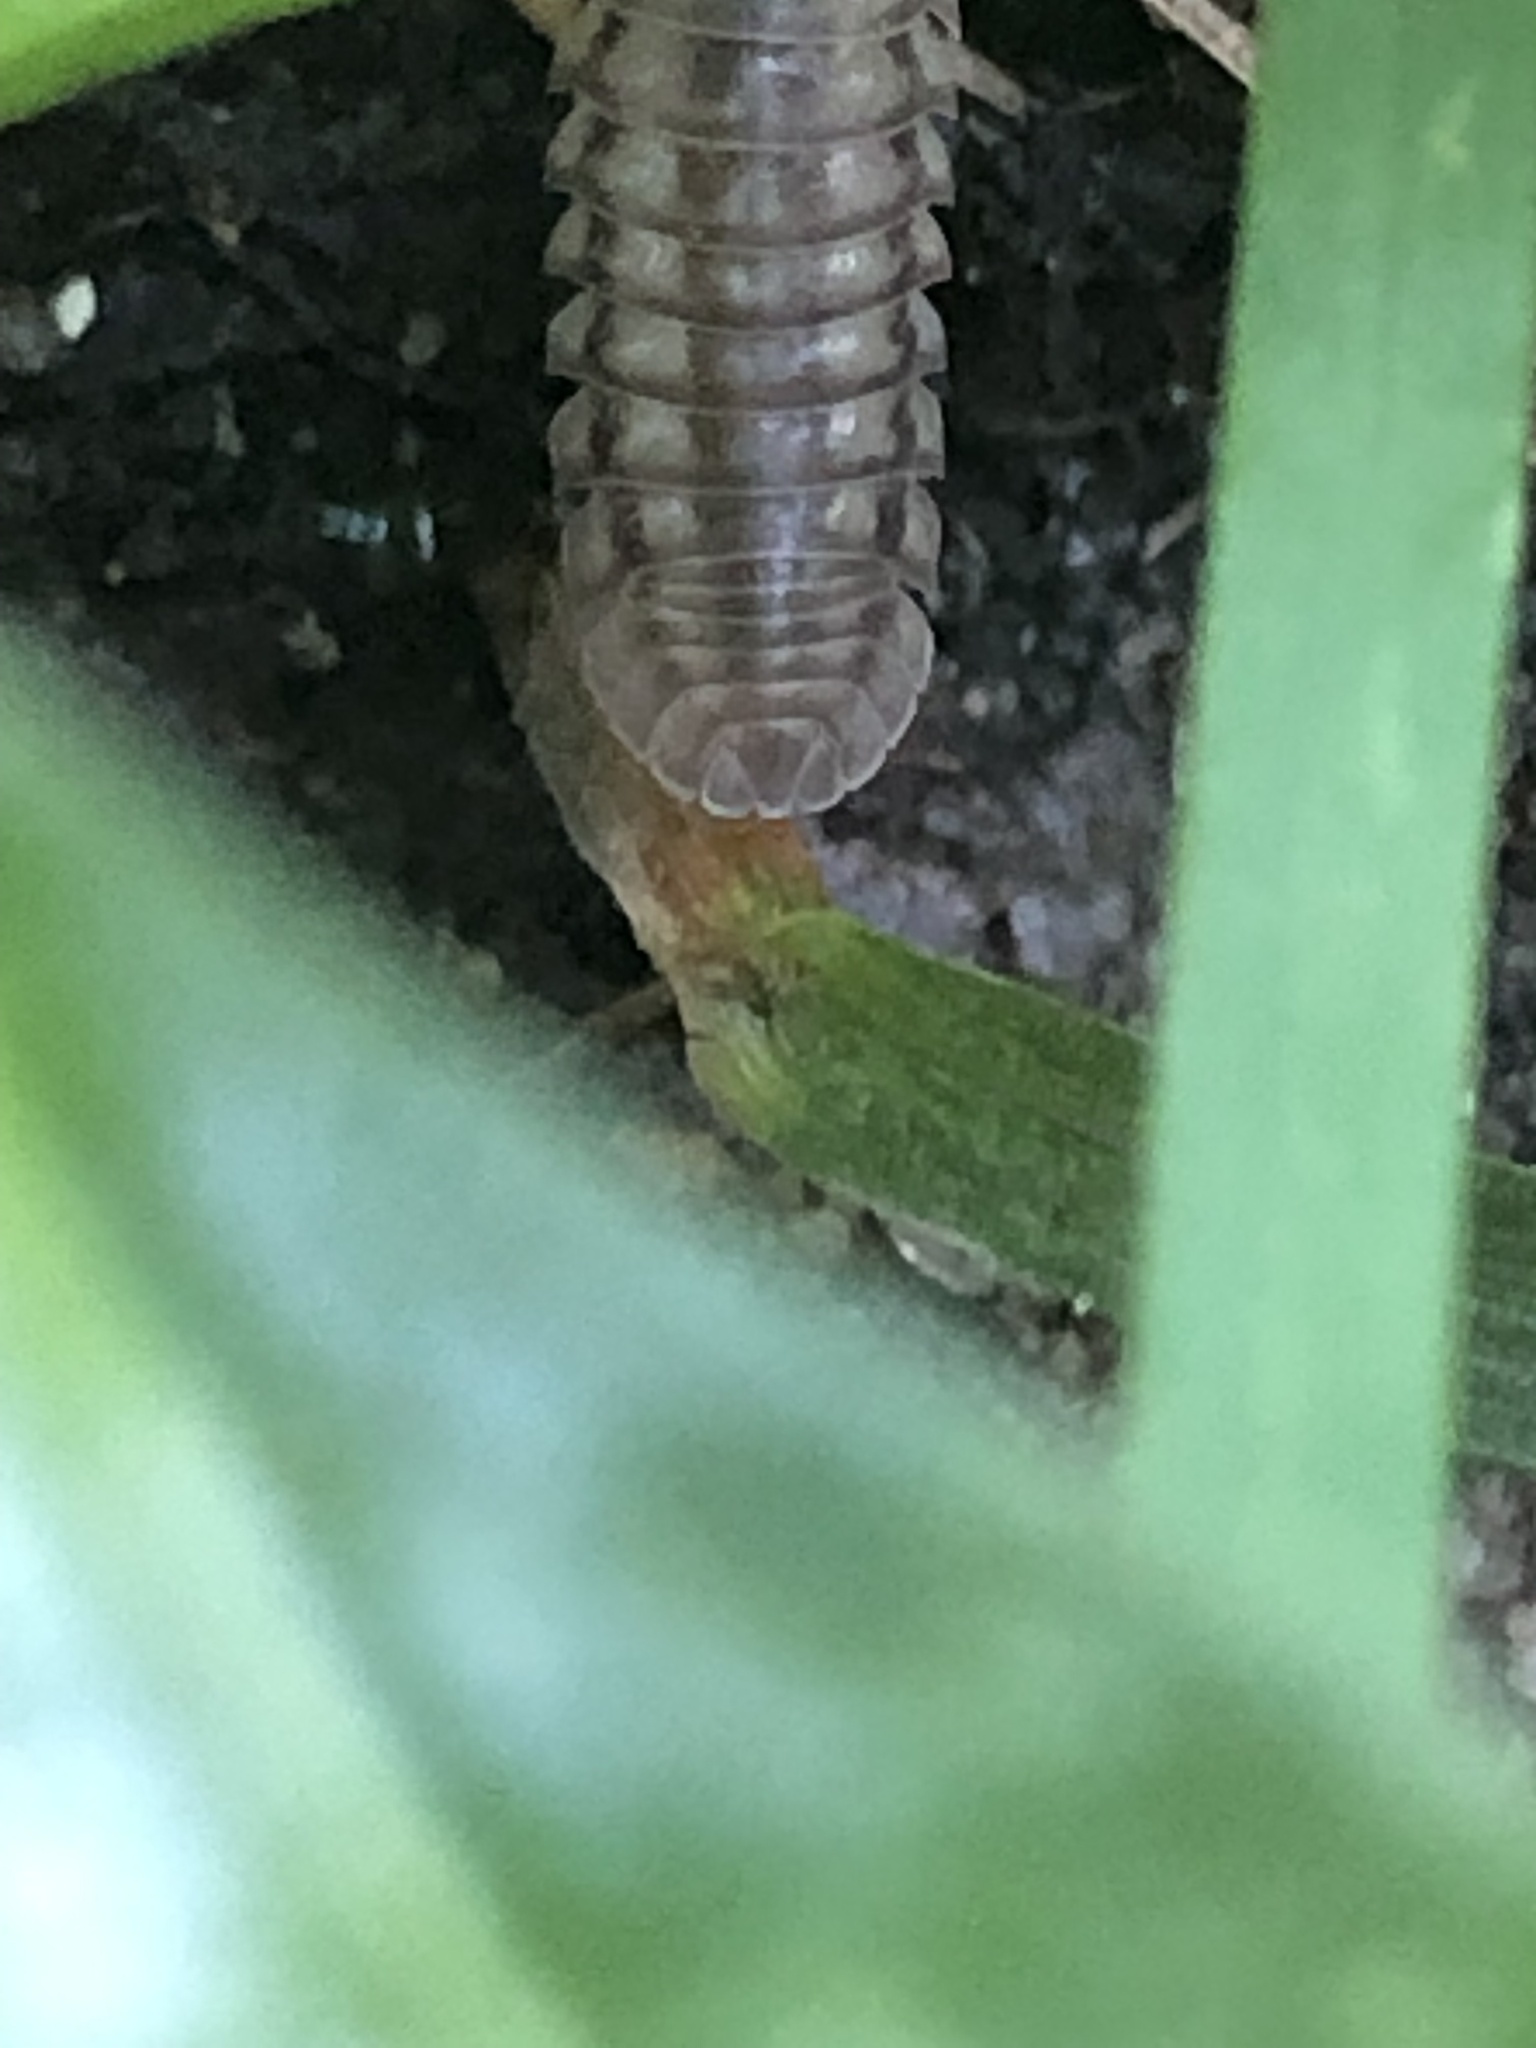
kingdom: Animalia
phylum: Arthropoda
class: Malacostraca
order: Isopoda
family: Armadillidiidae
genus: Armadillidium
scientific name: Armadillidium nasatum
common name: Isopod
